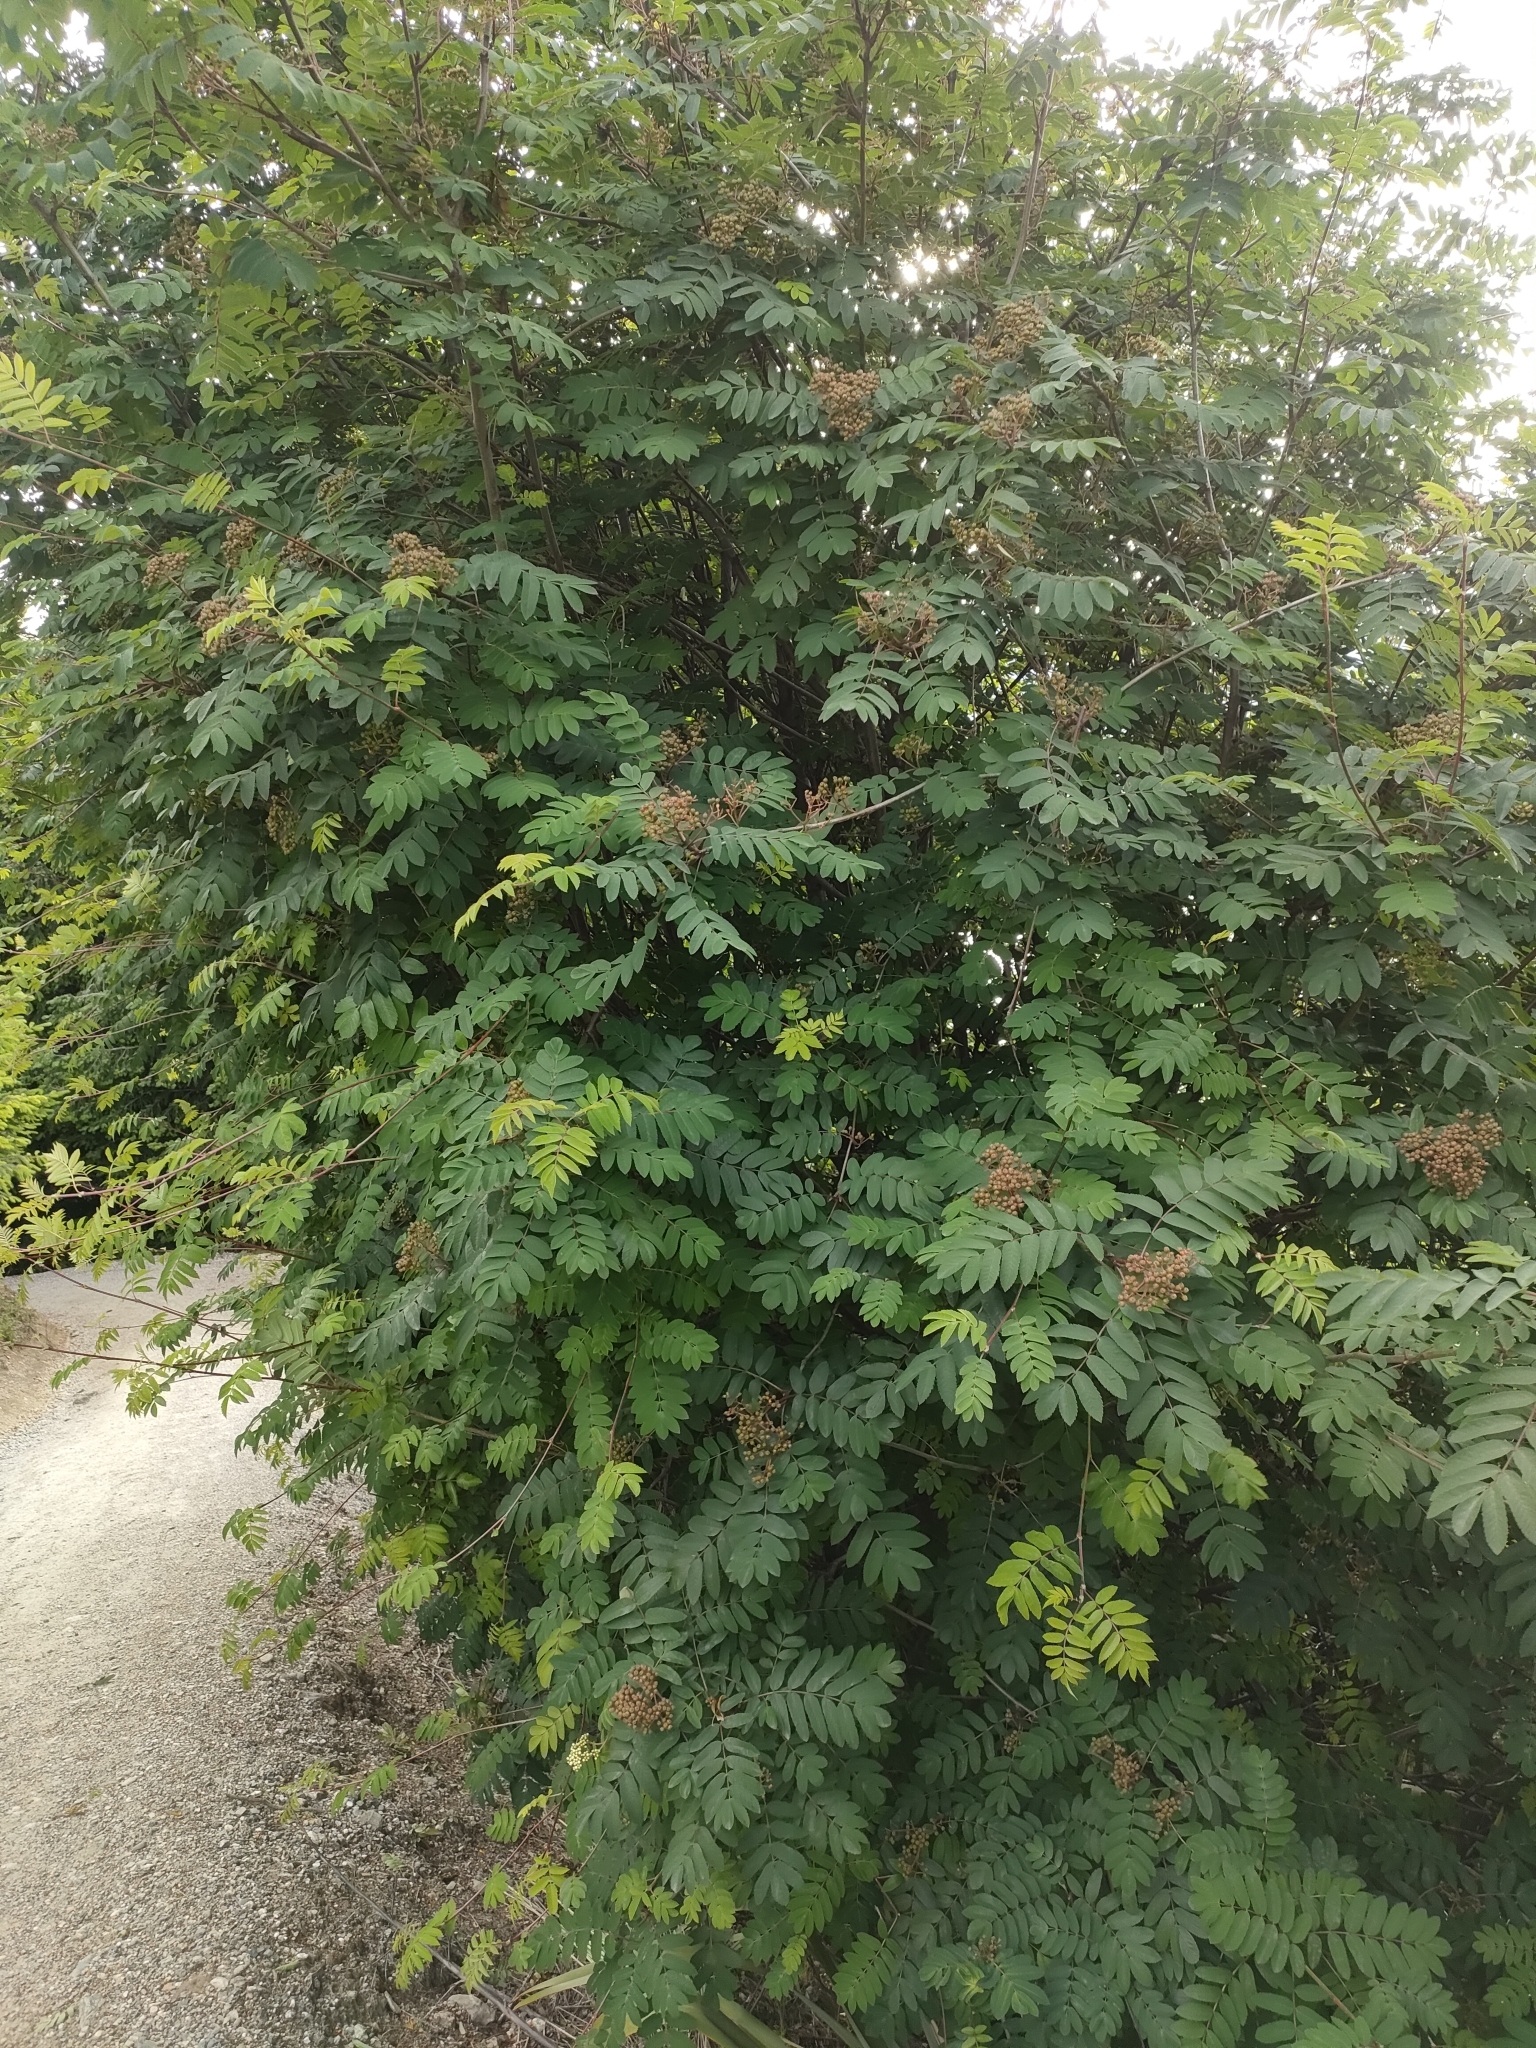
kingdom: Plantae
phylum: Tracheophyta
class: Magnoliopsida
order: Rosales
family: Rosaceae
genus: Sorbus
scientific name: Sorbus aucuparia
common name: Rowan
